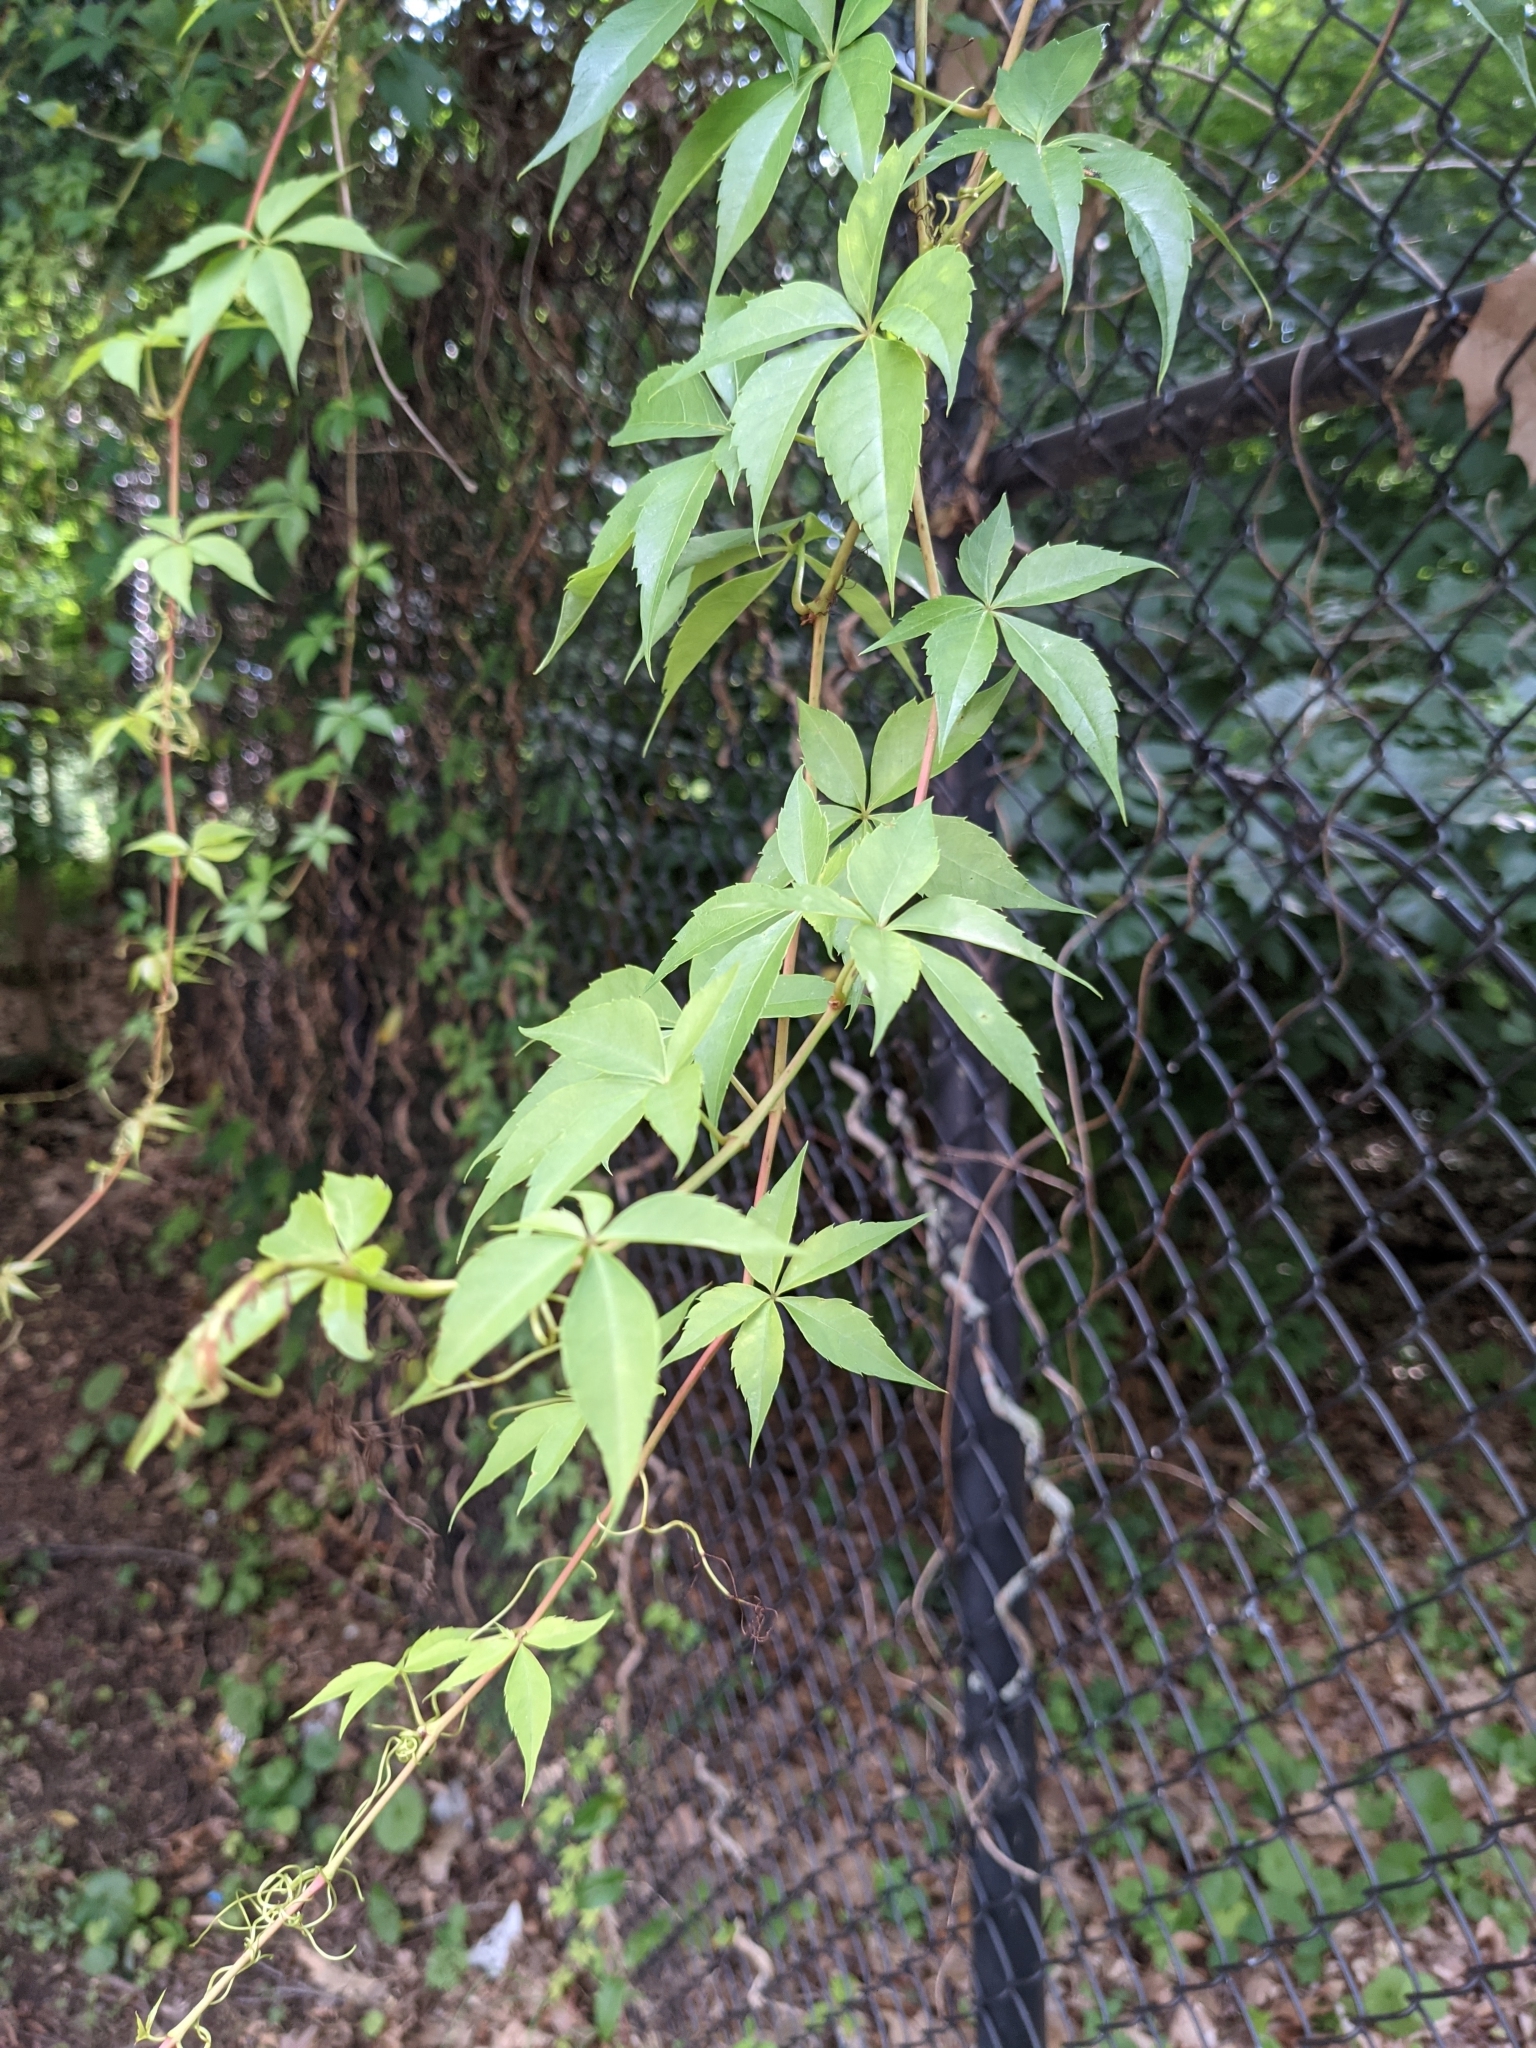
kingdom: Plantae
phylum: Tracheophyta
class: Magnoliopsida
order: Vitales
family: Vitaceae
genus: Parthenocissus
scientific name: Parthenocissus quinquefolia
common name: Virginia-creeper
